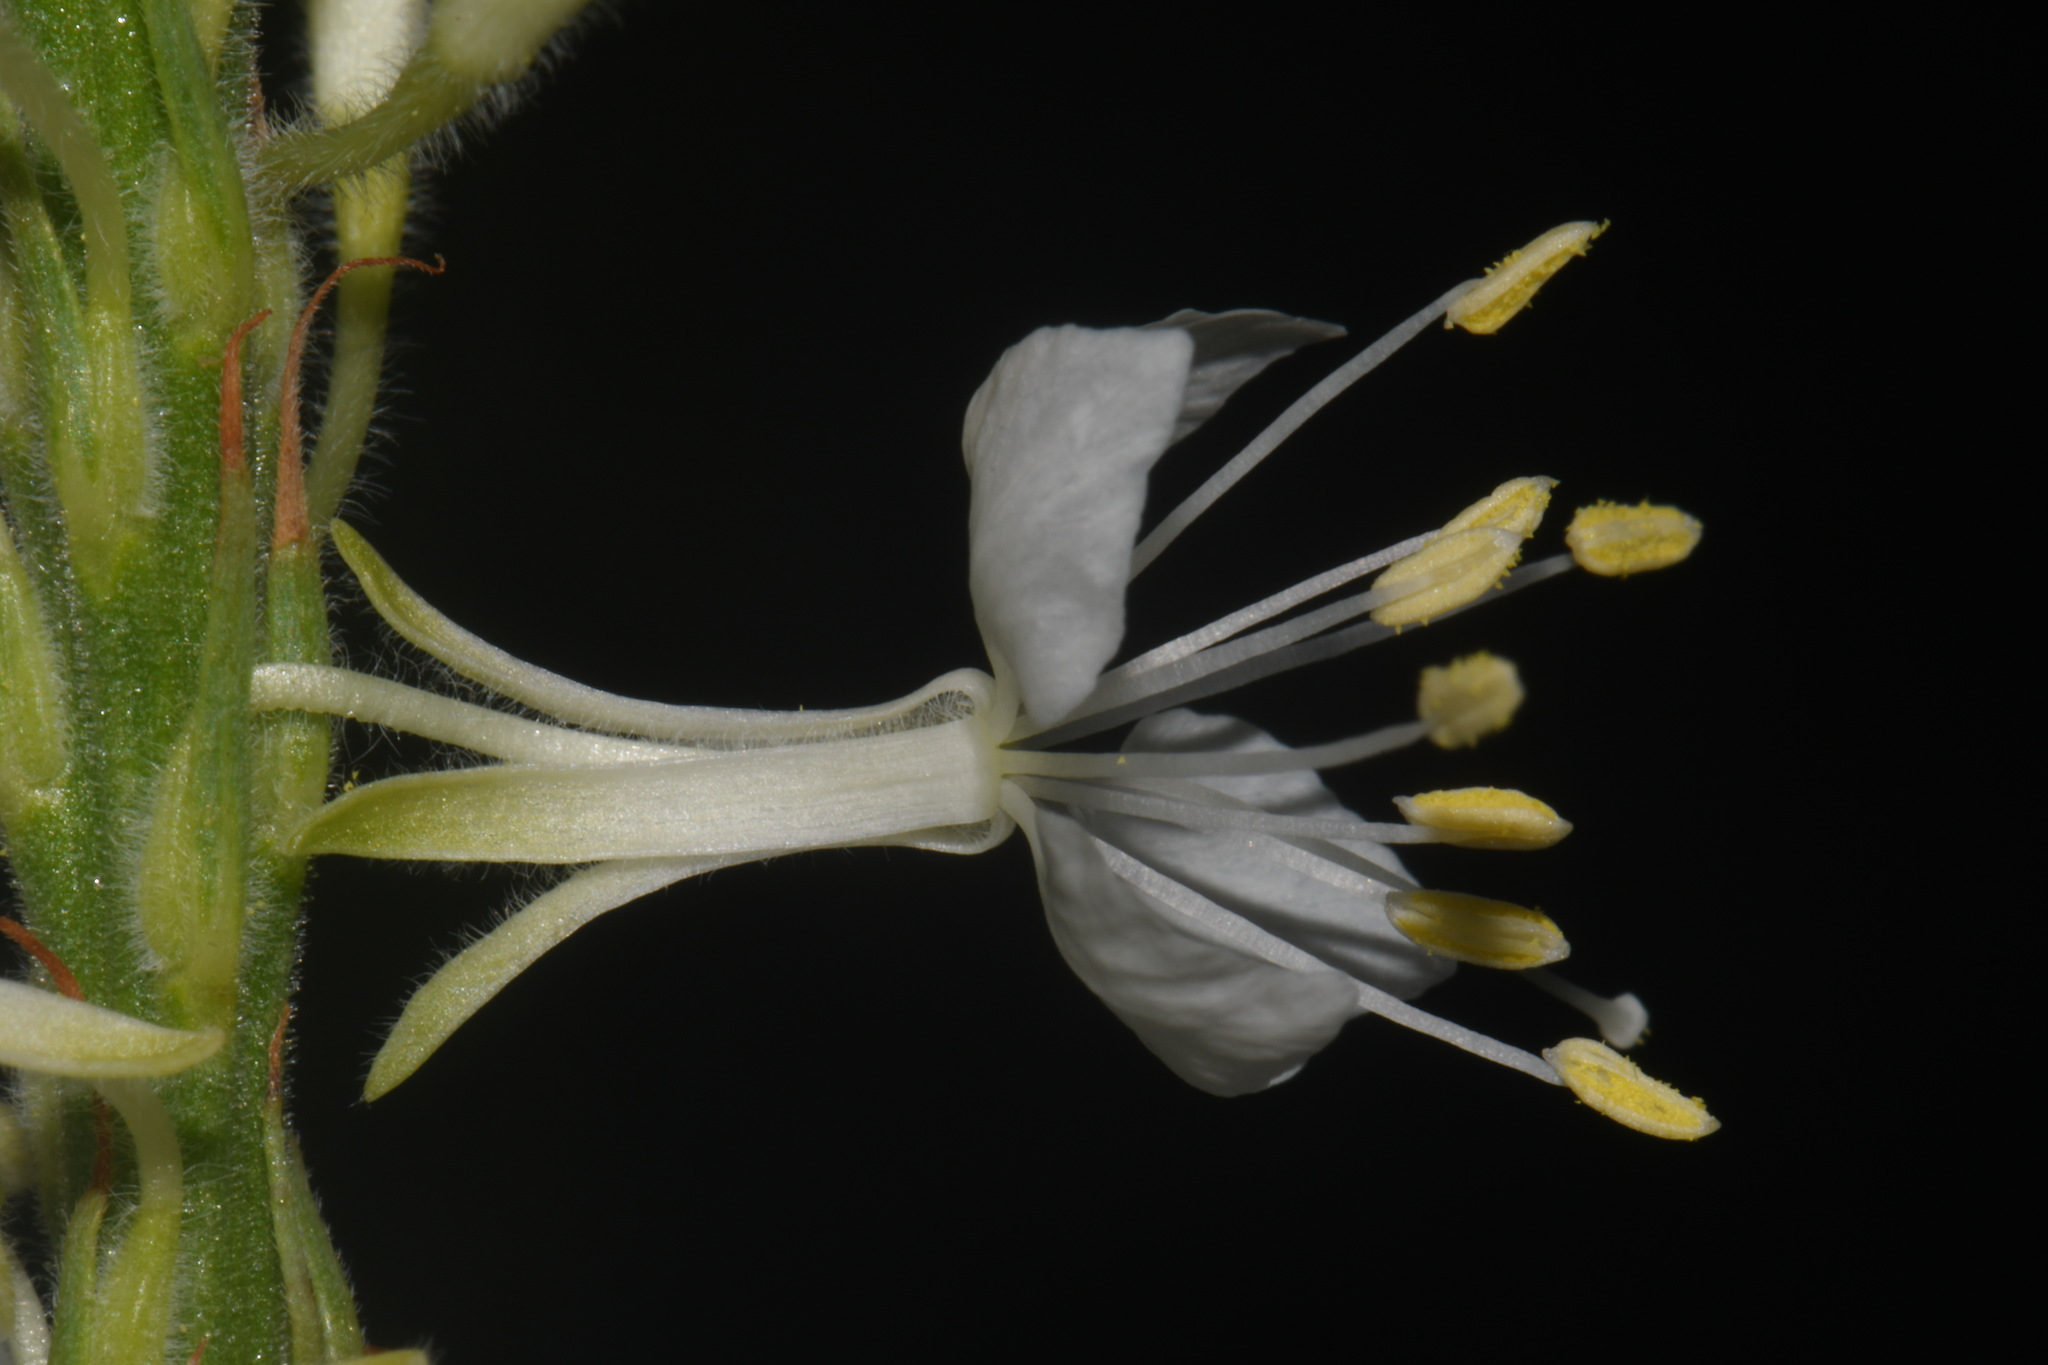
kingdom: Plantae
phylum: Tracheophyta
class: Magnoliopsida
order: Myrtales
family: Onagraceae
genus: Oenothera
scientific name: Oenothera glaucifolia
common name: False gaura
